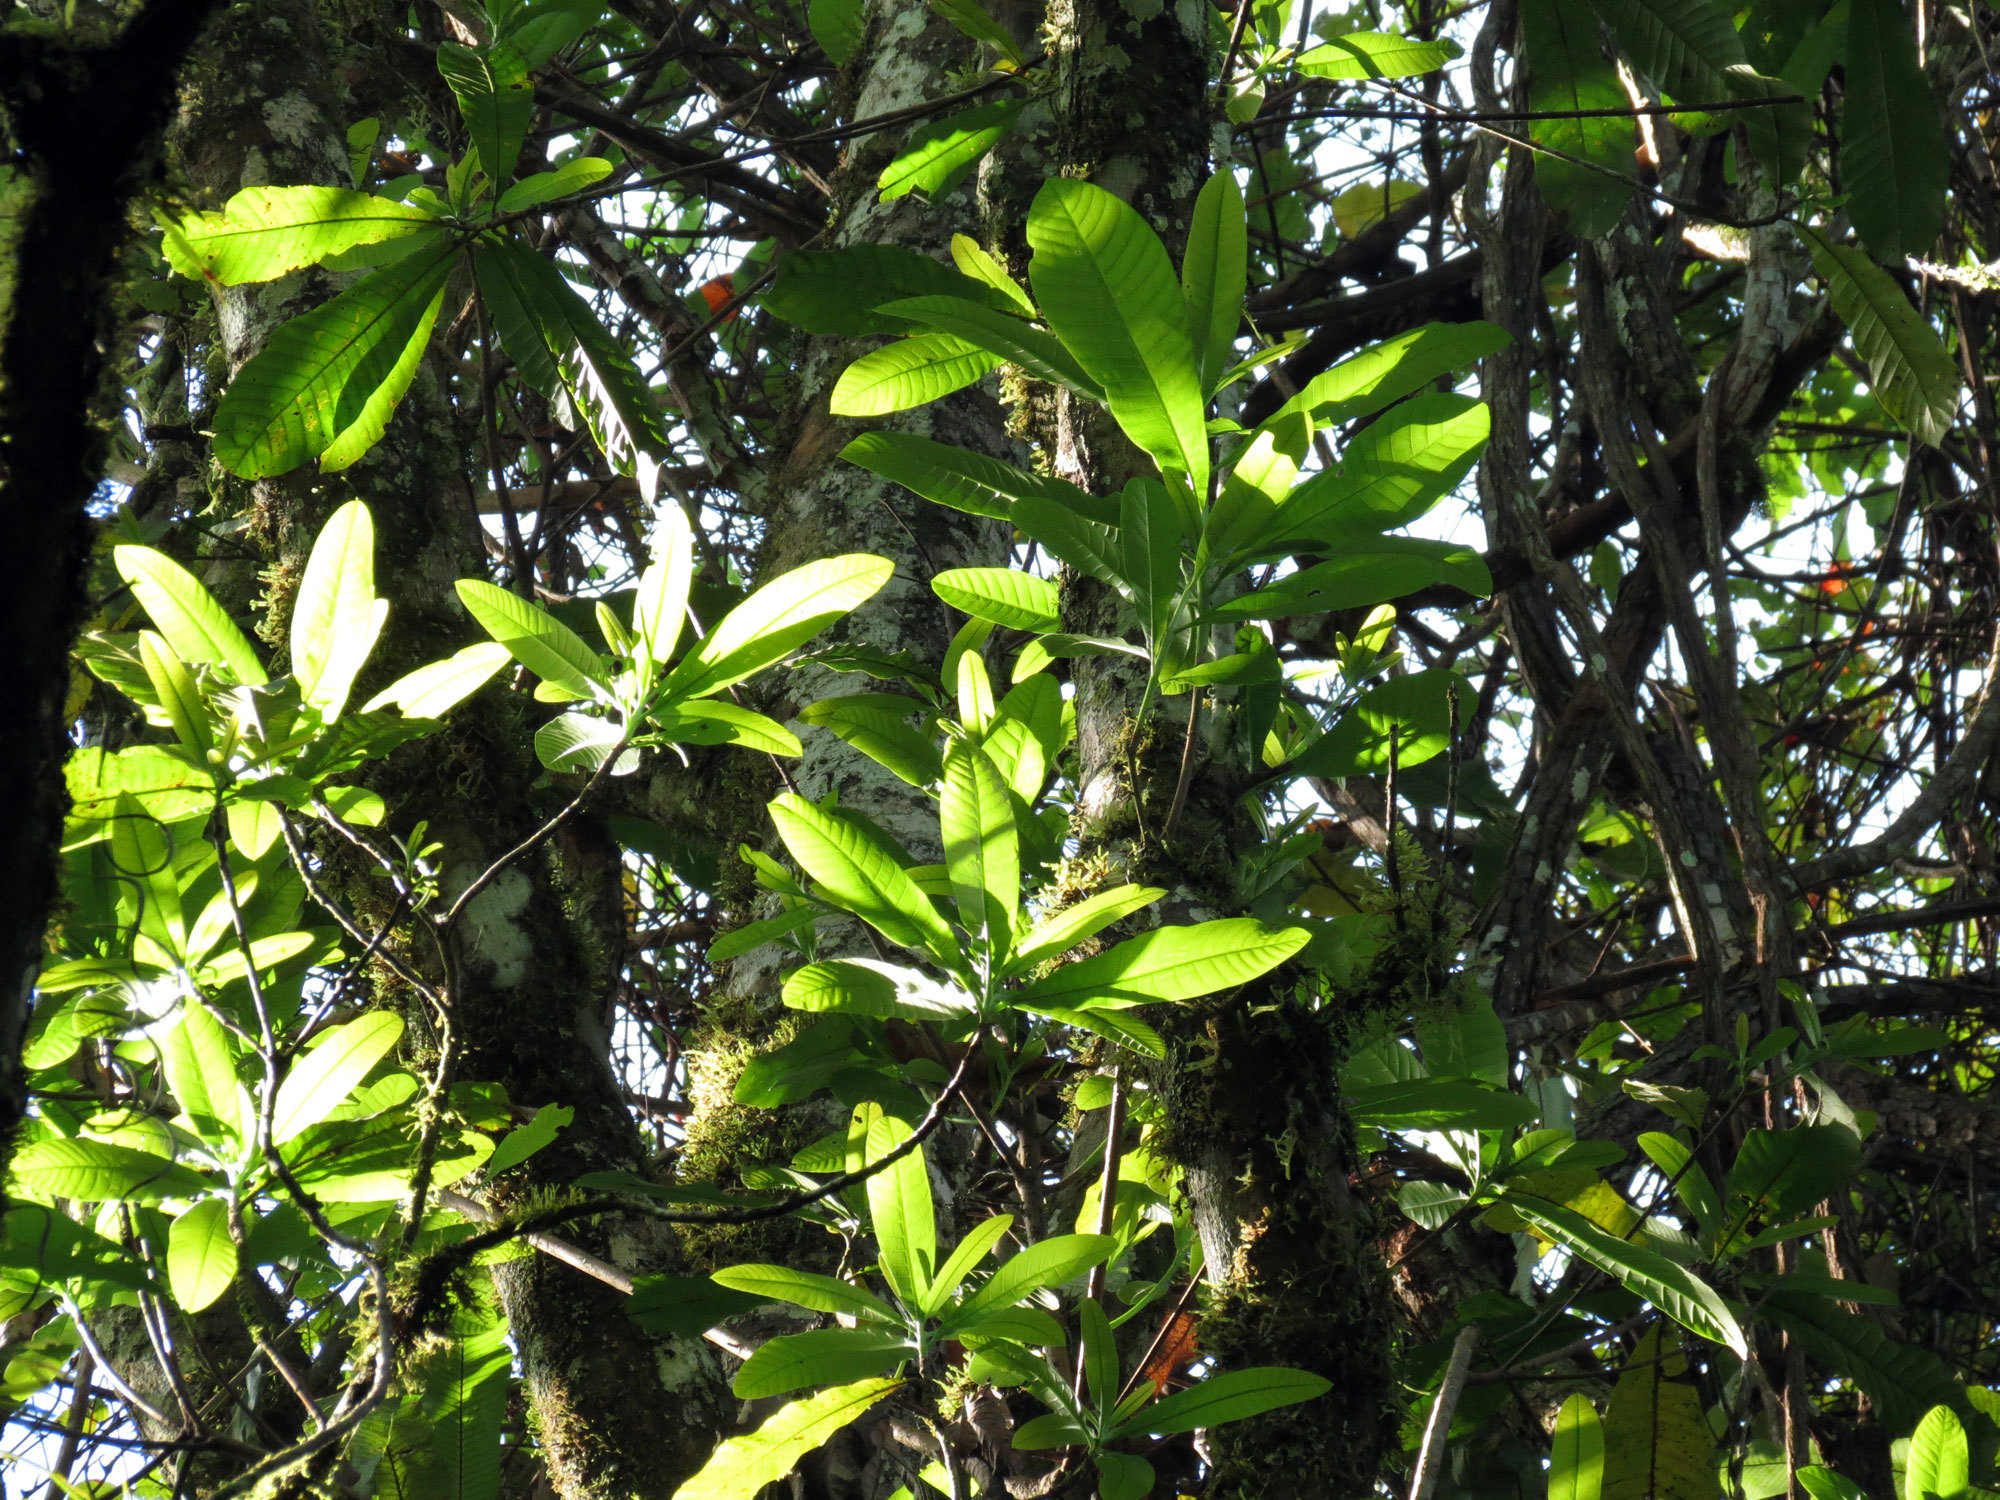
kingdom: Plantae
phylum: Tracheophyta
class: Magnoliopsida
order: Sapindales
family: Anacardiaceae
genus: Anacardium
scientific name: Anacardium excelsum
